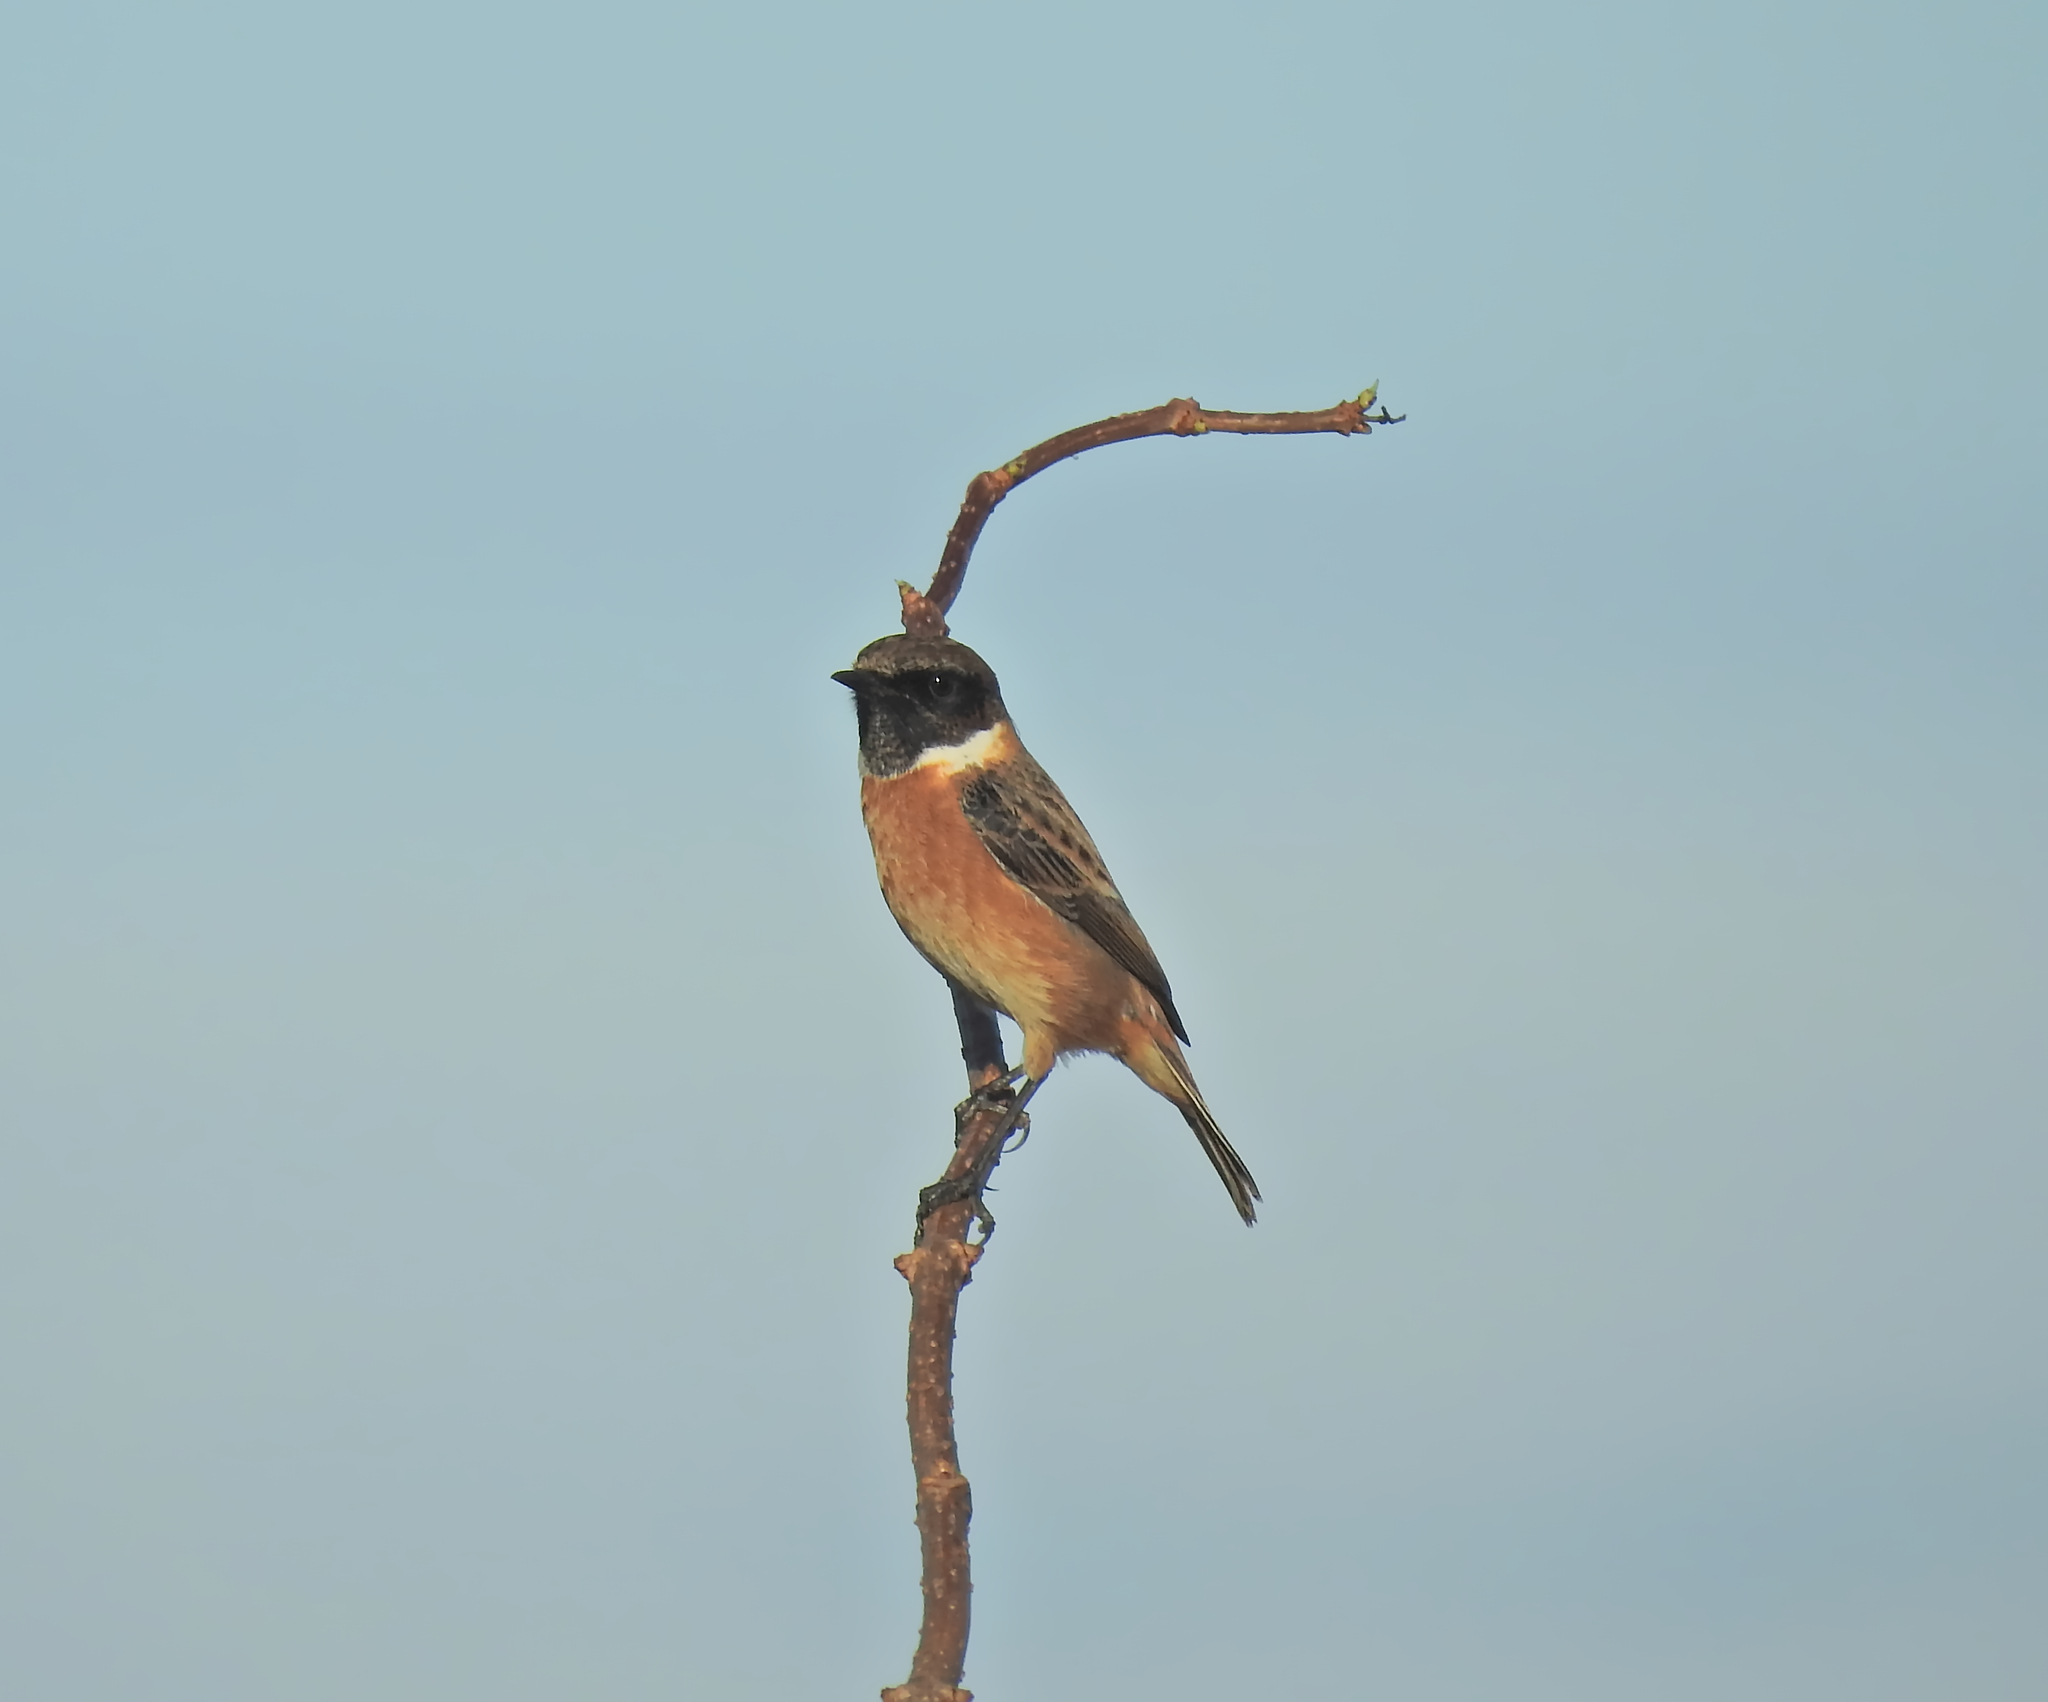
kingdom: Animalia
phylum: Chordata
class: Aves
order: Passeriformes
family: Muscicapidae
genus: Saxicola
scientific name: Saxicola rubicola
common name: European stonechat
